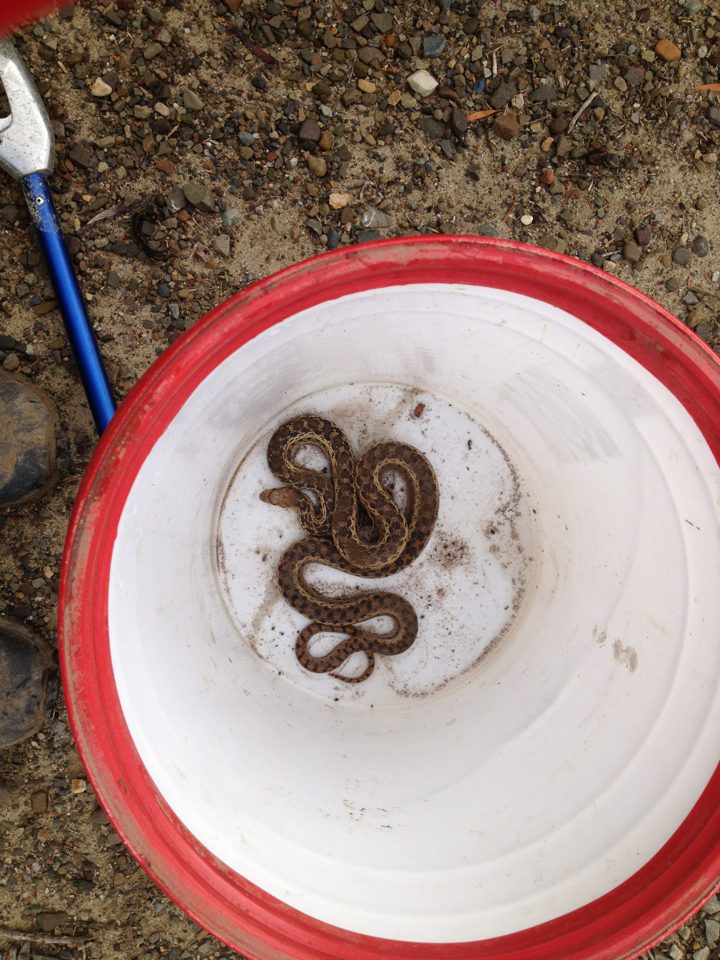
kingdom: Animalia
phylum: Chordata
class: Squamata
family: Colubridae
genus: Pituophis
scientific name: Pituophis catenifer
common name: Gopher snake
